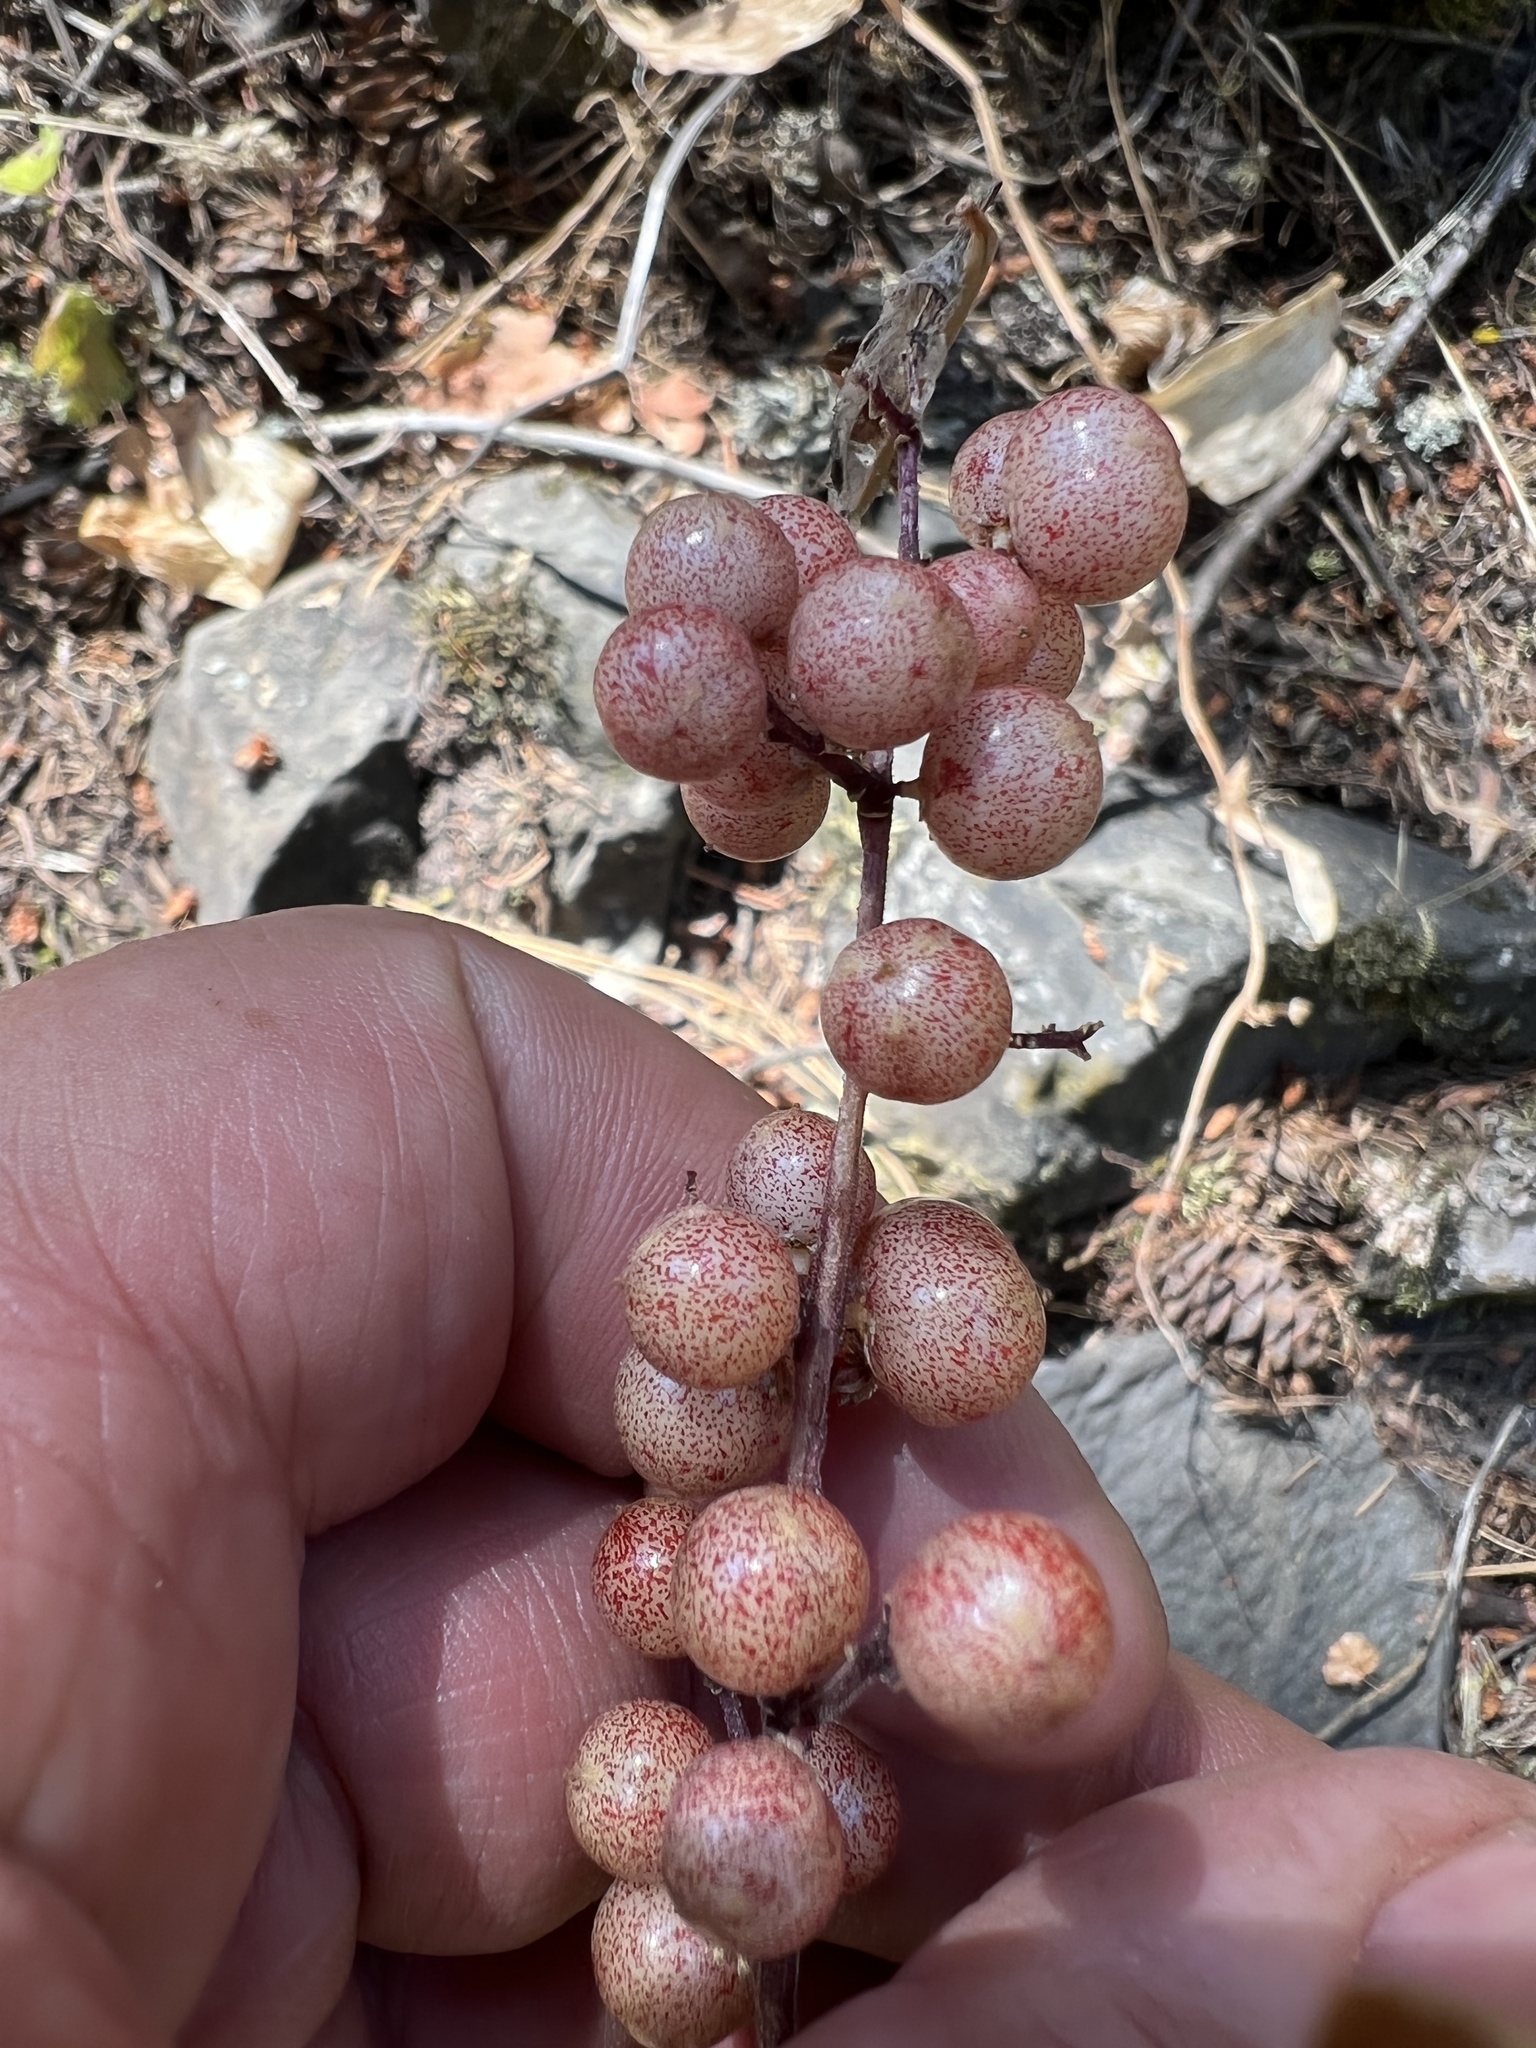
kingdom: Plantae
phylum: Tracheophyta
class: Liliopsida
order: Asparagales
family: Asparagaceae
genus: Maianthemum
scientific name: Maianthemum racemosum
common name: False spikenard
